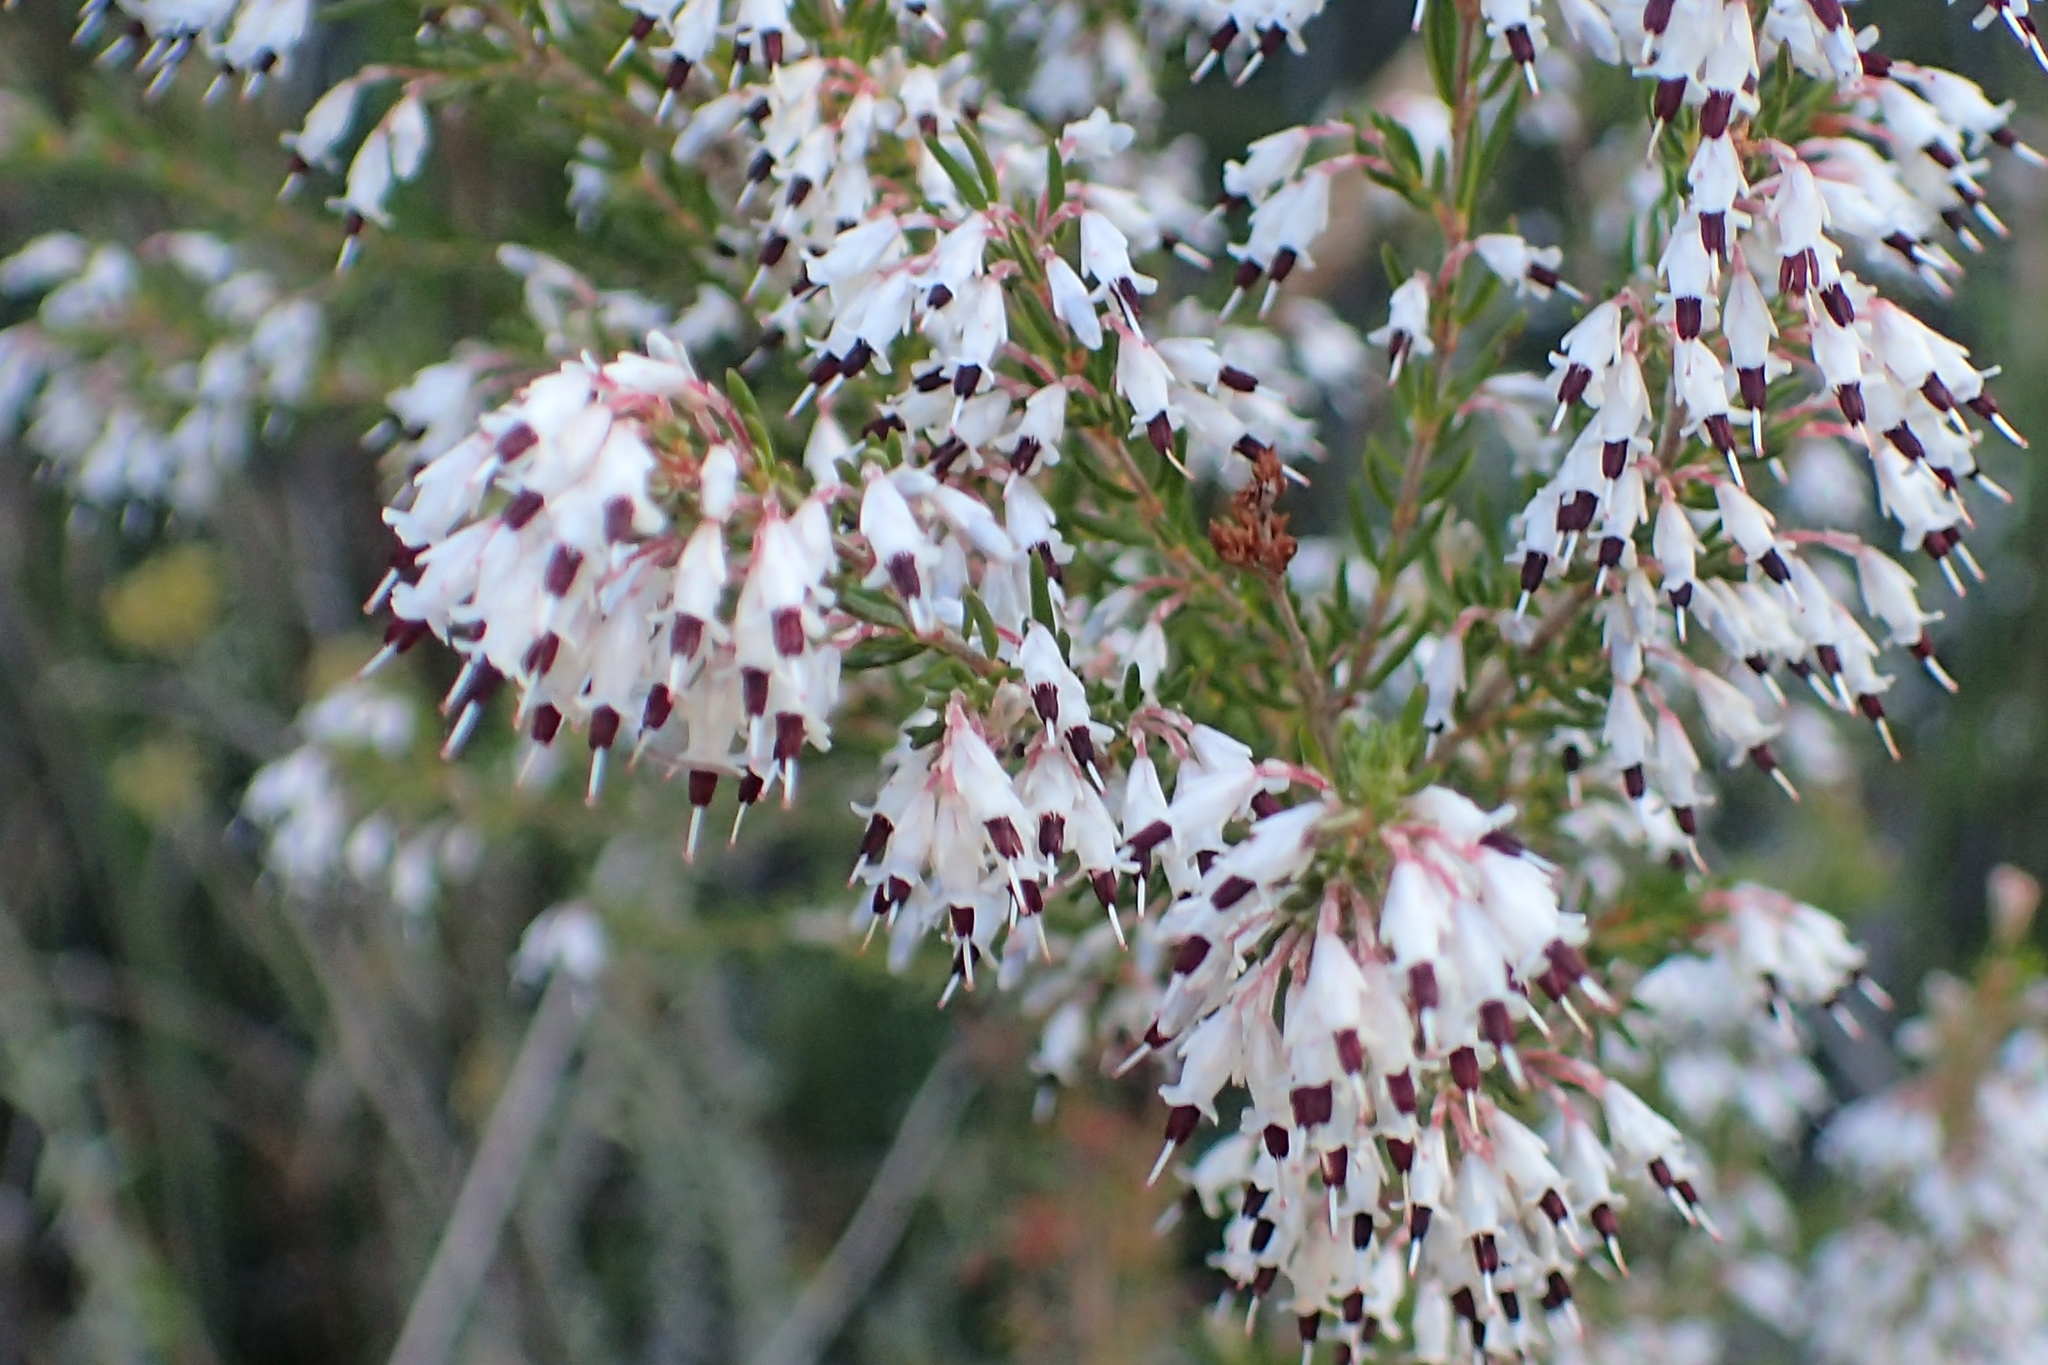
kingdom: Plantae
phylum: Tracheophyta
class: Magnoliopsida
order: Ericales
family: Ericaceae
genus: Erica
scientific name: Erica fuscescens
